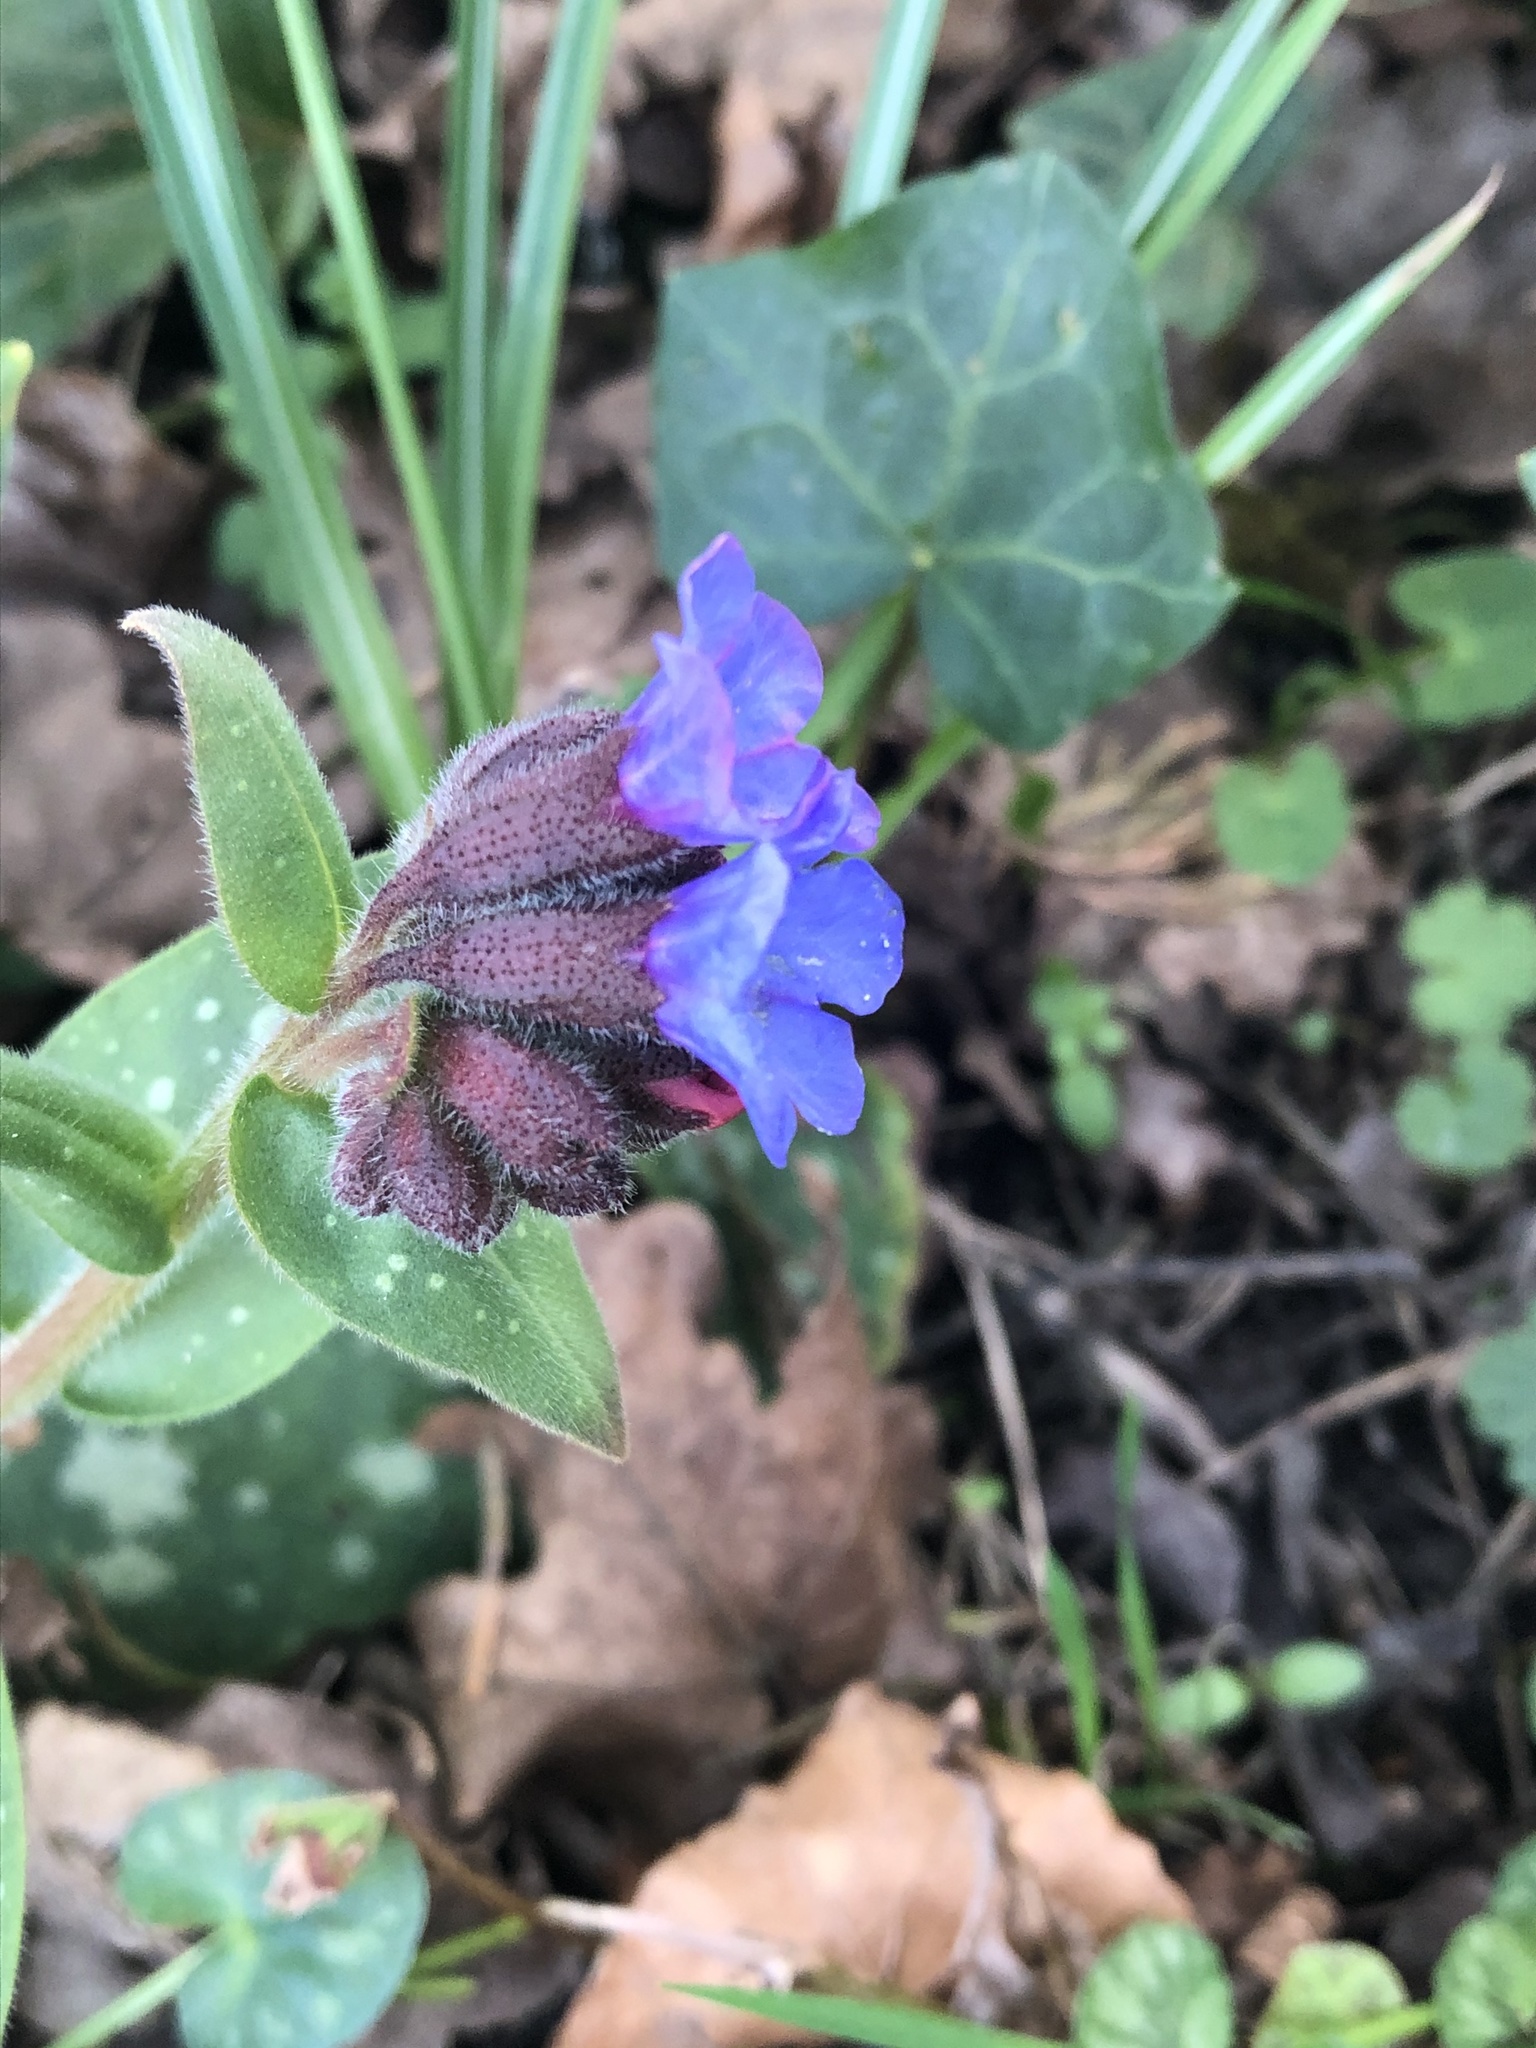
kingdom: Plantae
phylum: Tracheophyta
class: Magnoliopsida
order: Boraginales
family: Boraginaceae
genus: Pulmonaria
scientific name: Pulmonaria officinalis
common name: Lungwort
